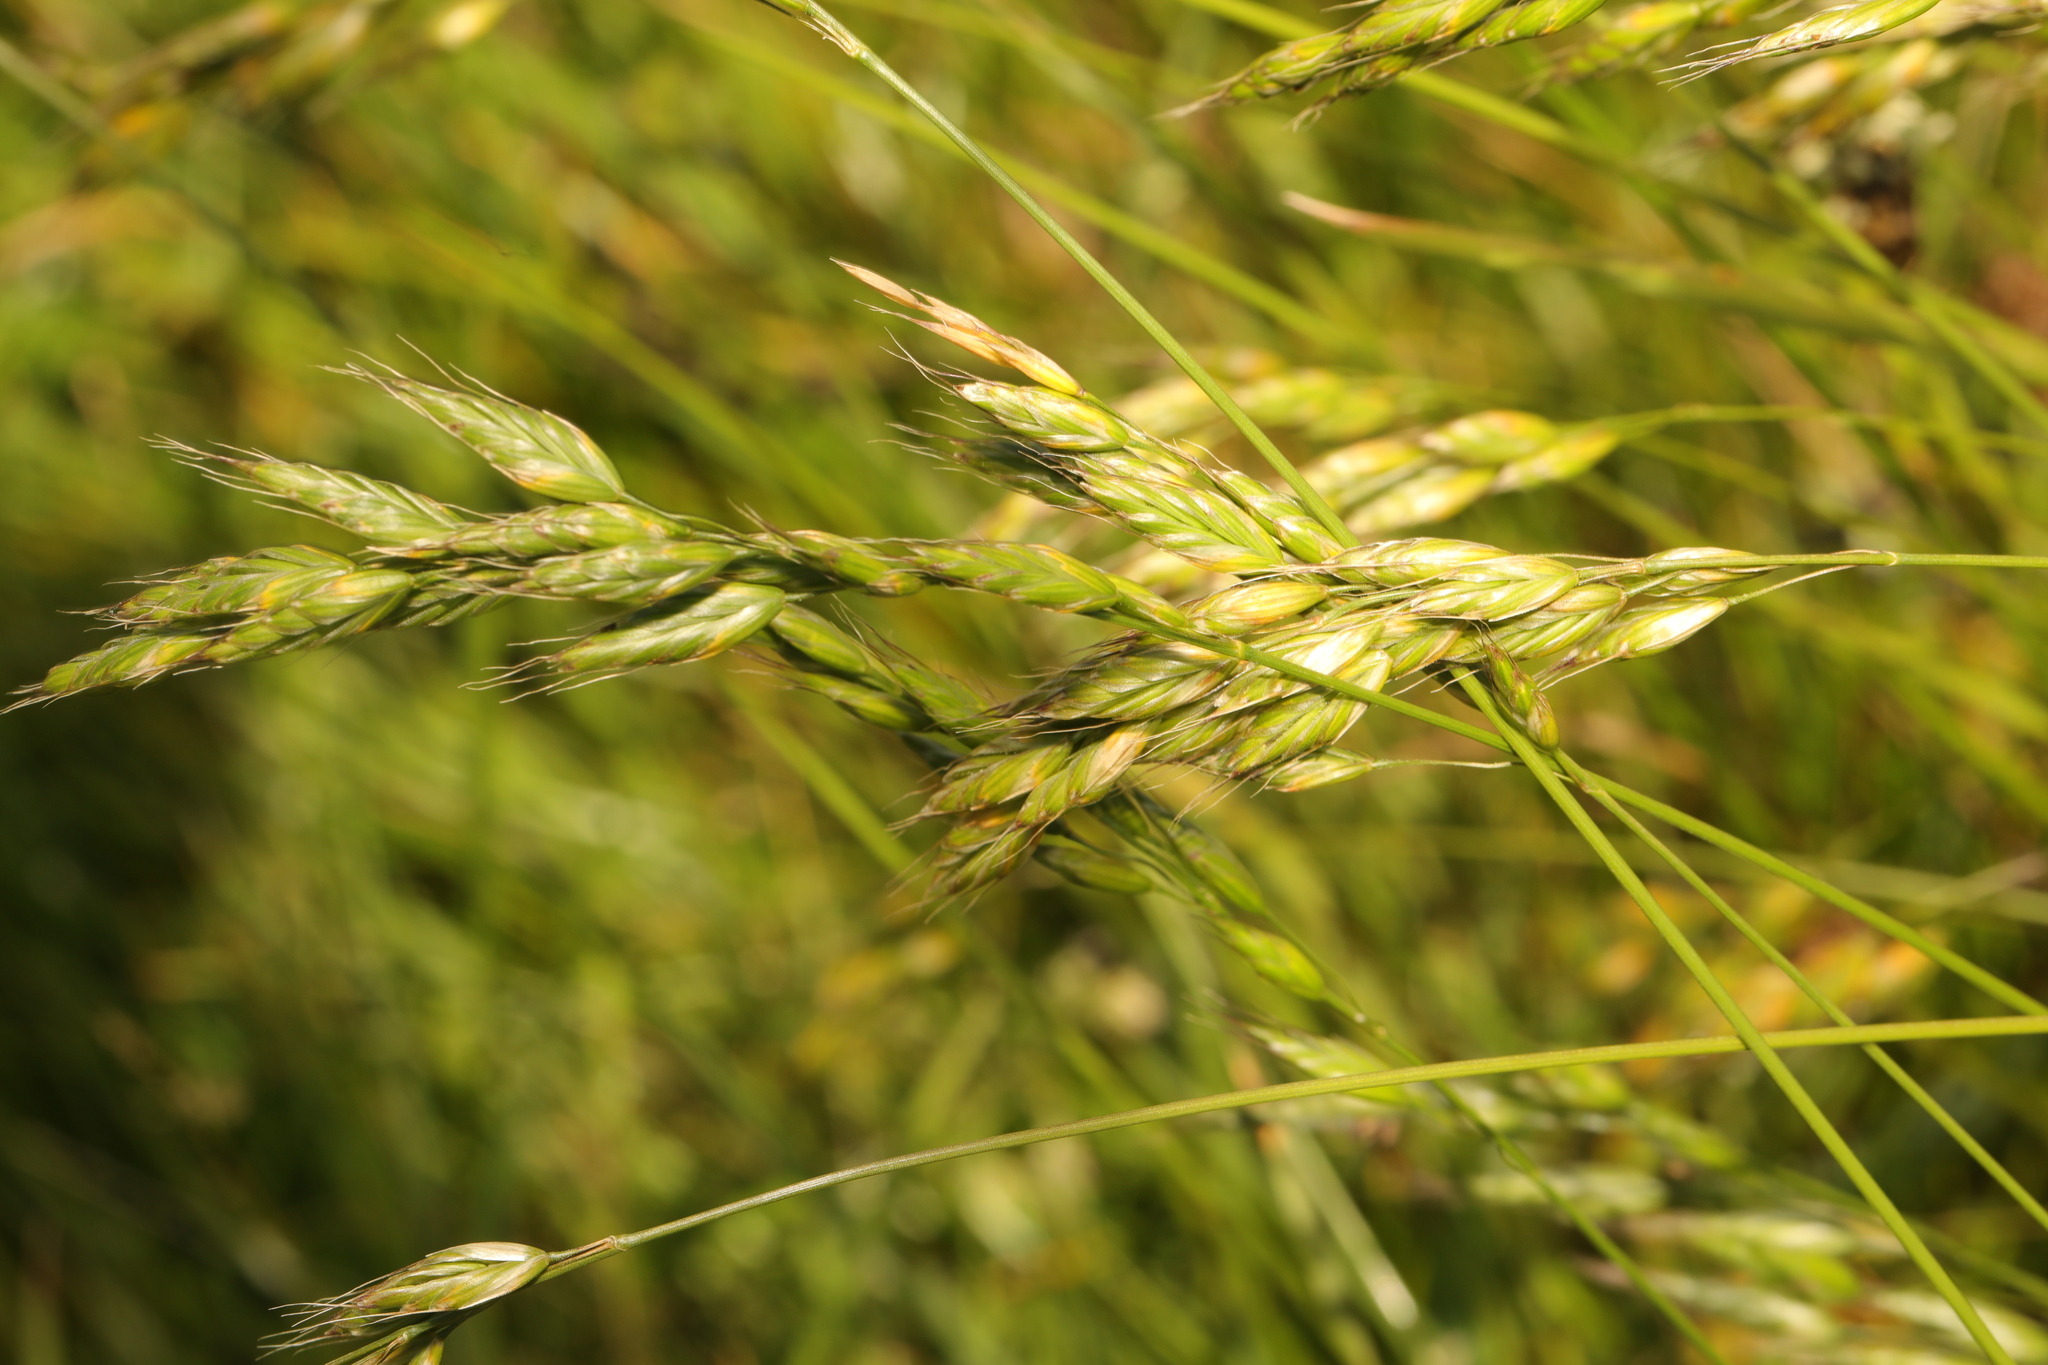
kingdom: Plantae
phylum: Tracheophyta
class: Liliopsida
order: Poales
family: Poaceae
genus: Bromus
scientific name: Bromus hordeaceus
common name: Soft brome
